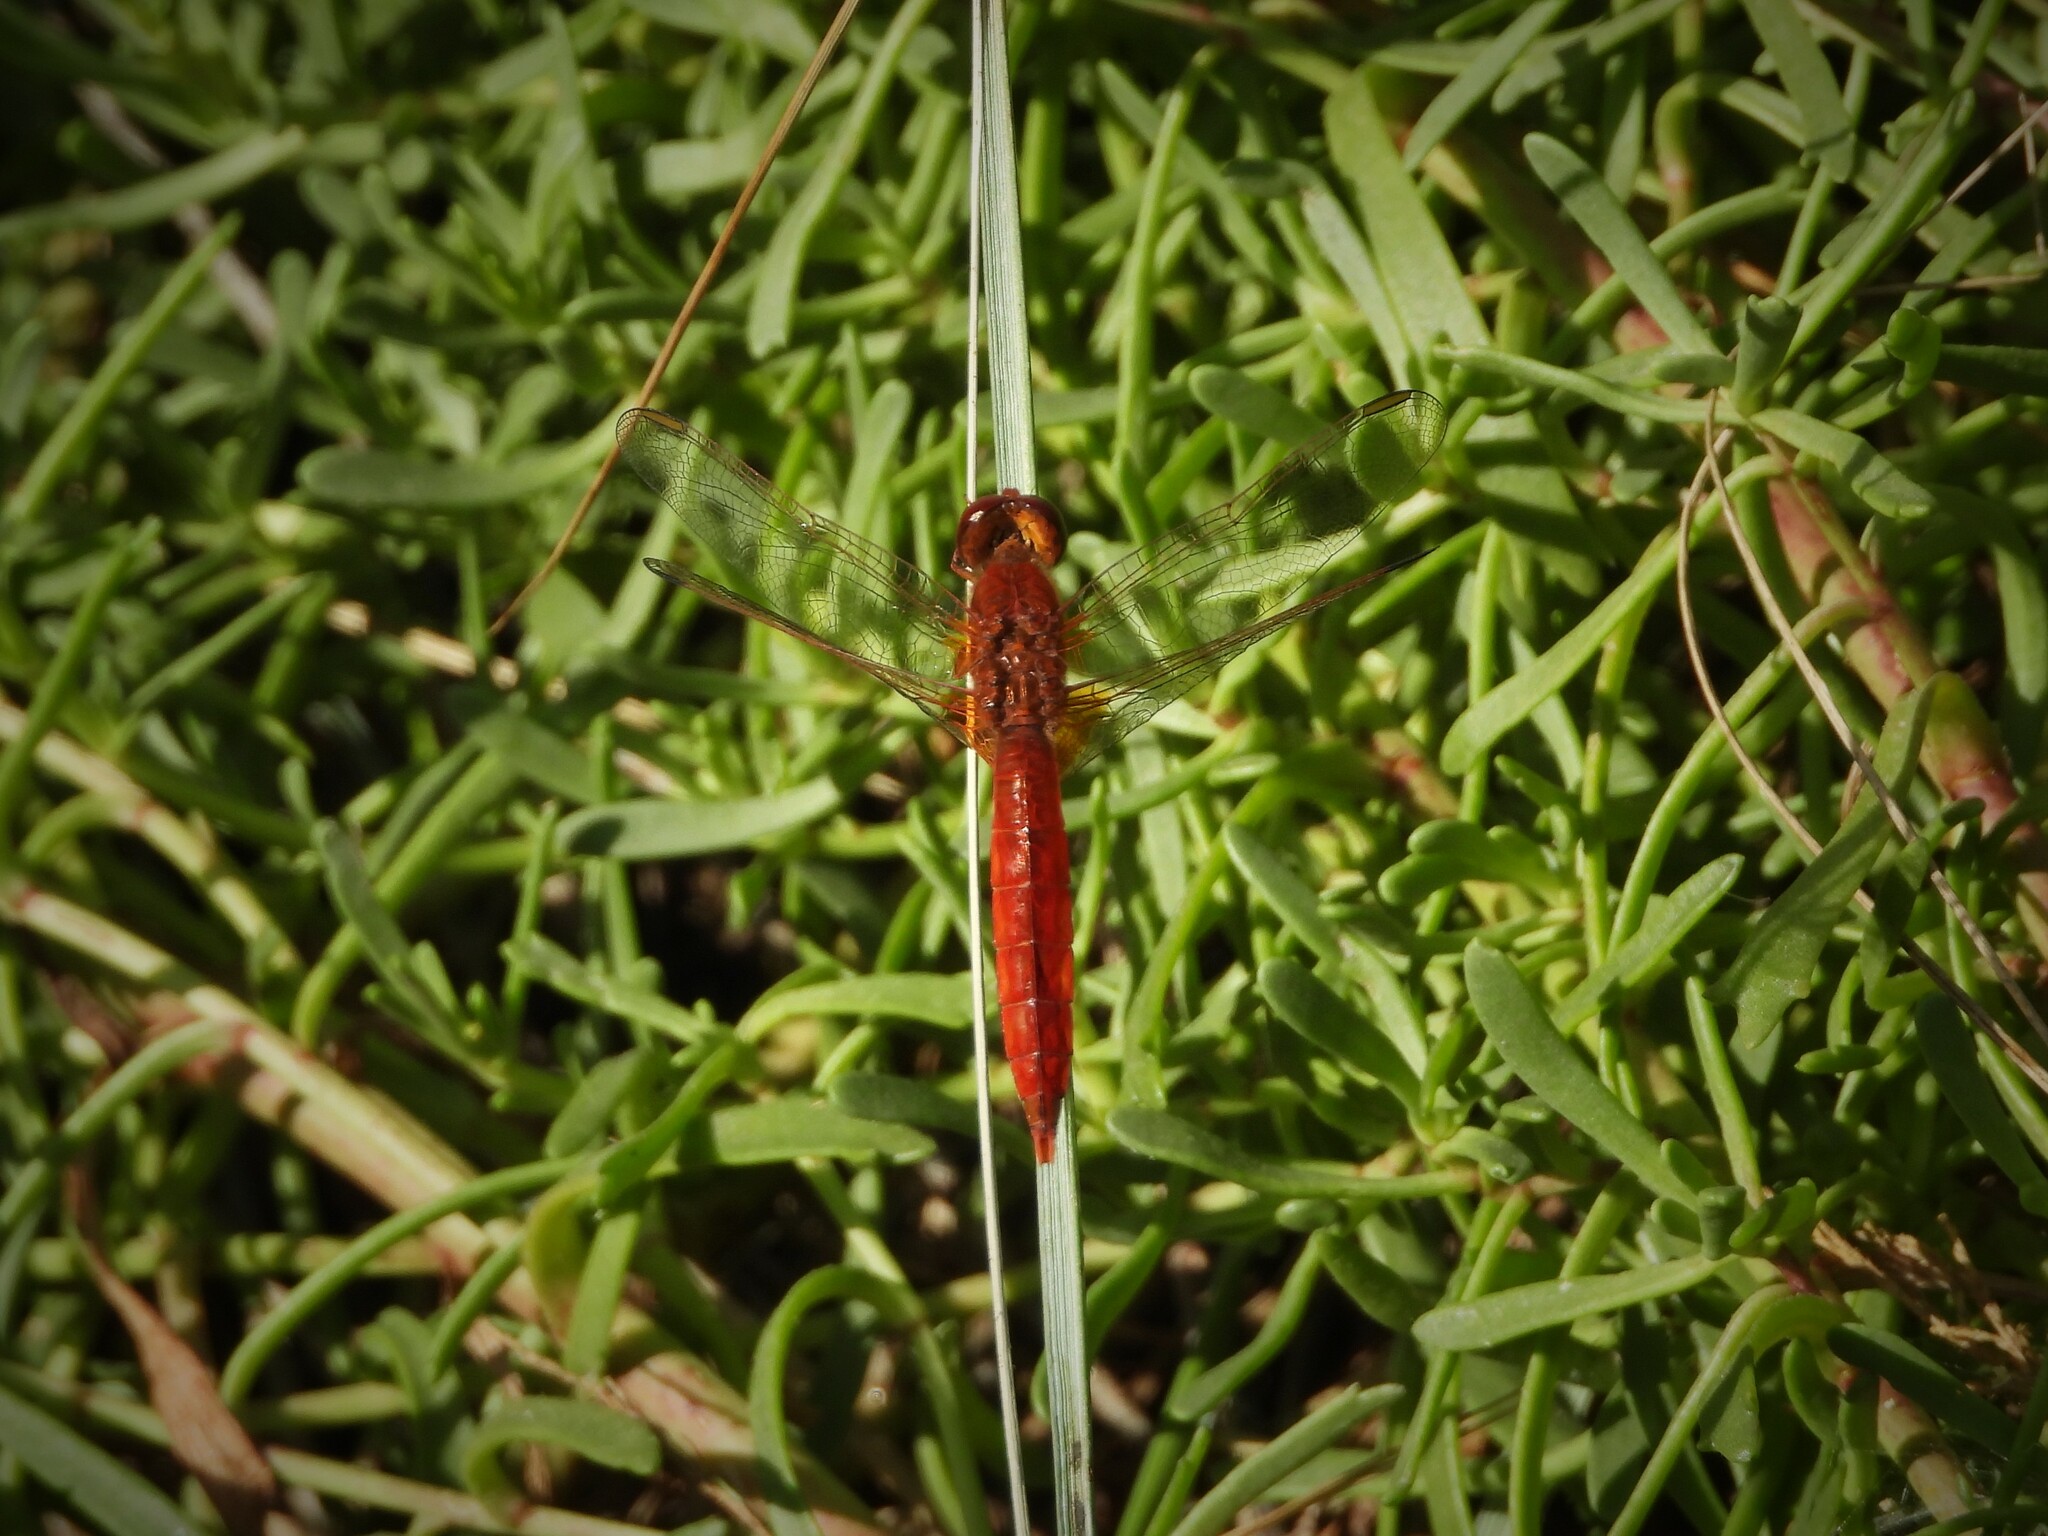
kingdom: Animalia
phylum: Arthropoda
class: Insecta
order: Odonata
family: Libellulidae
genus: Crocothemis
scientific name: Crocothemis erythraea
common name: Scarlet dragonfly
